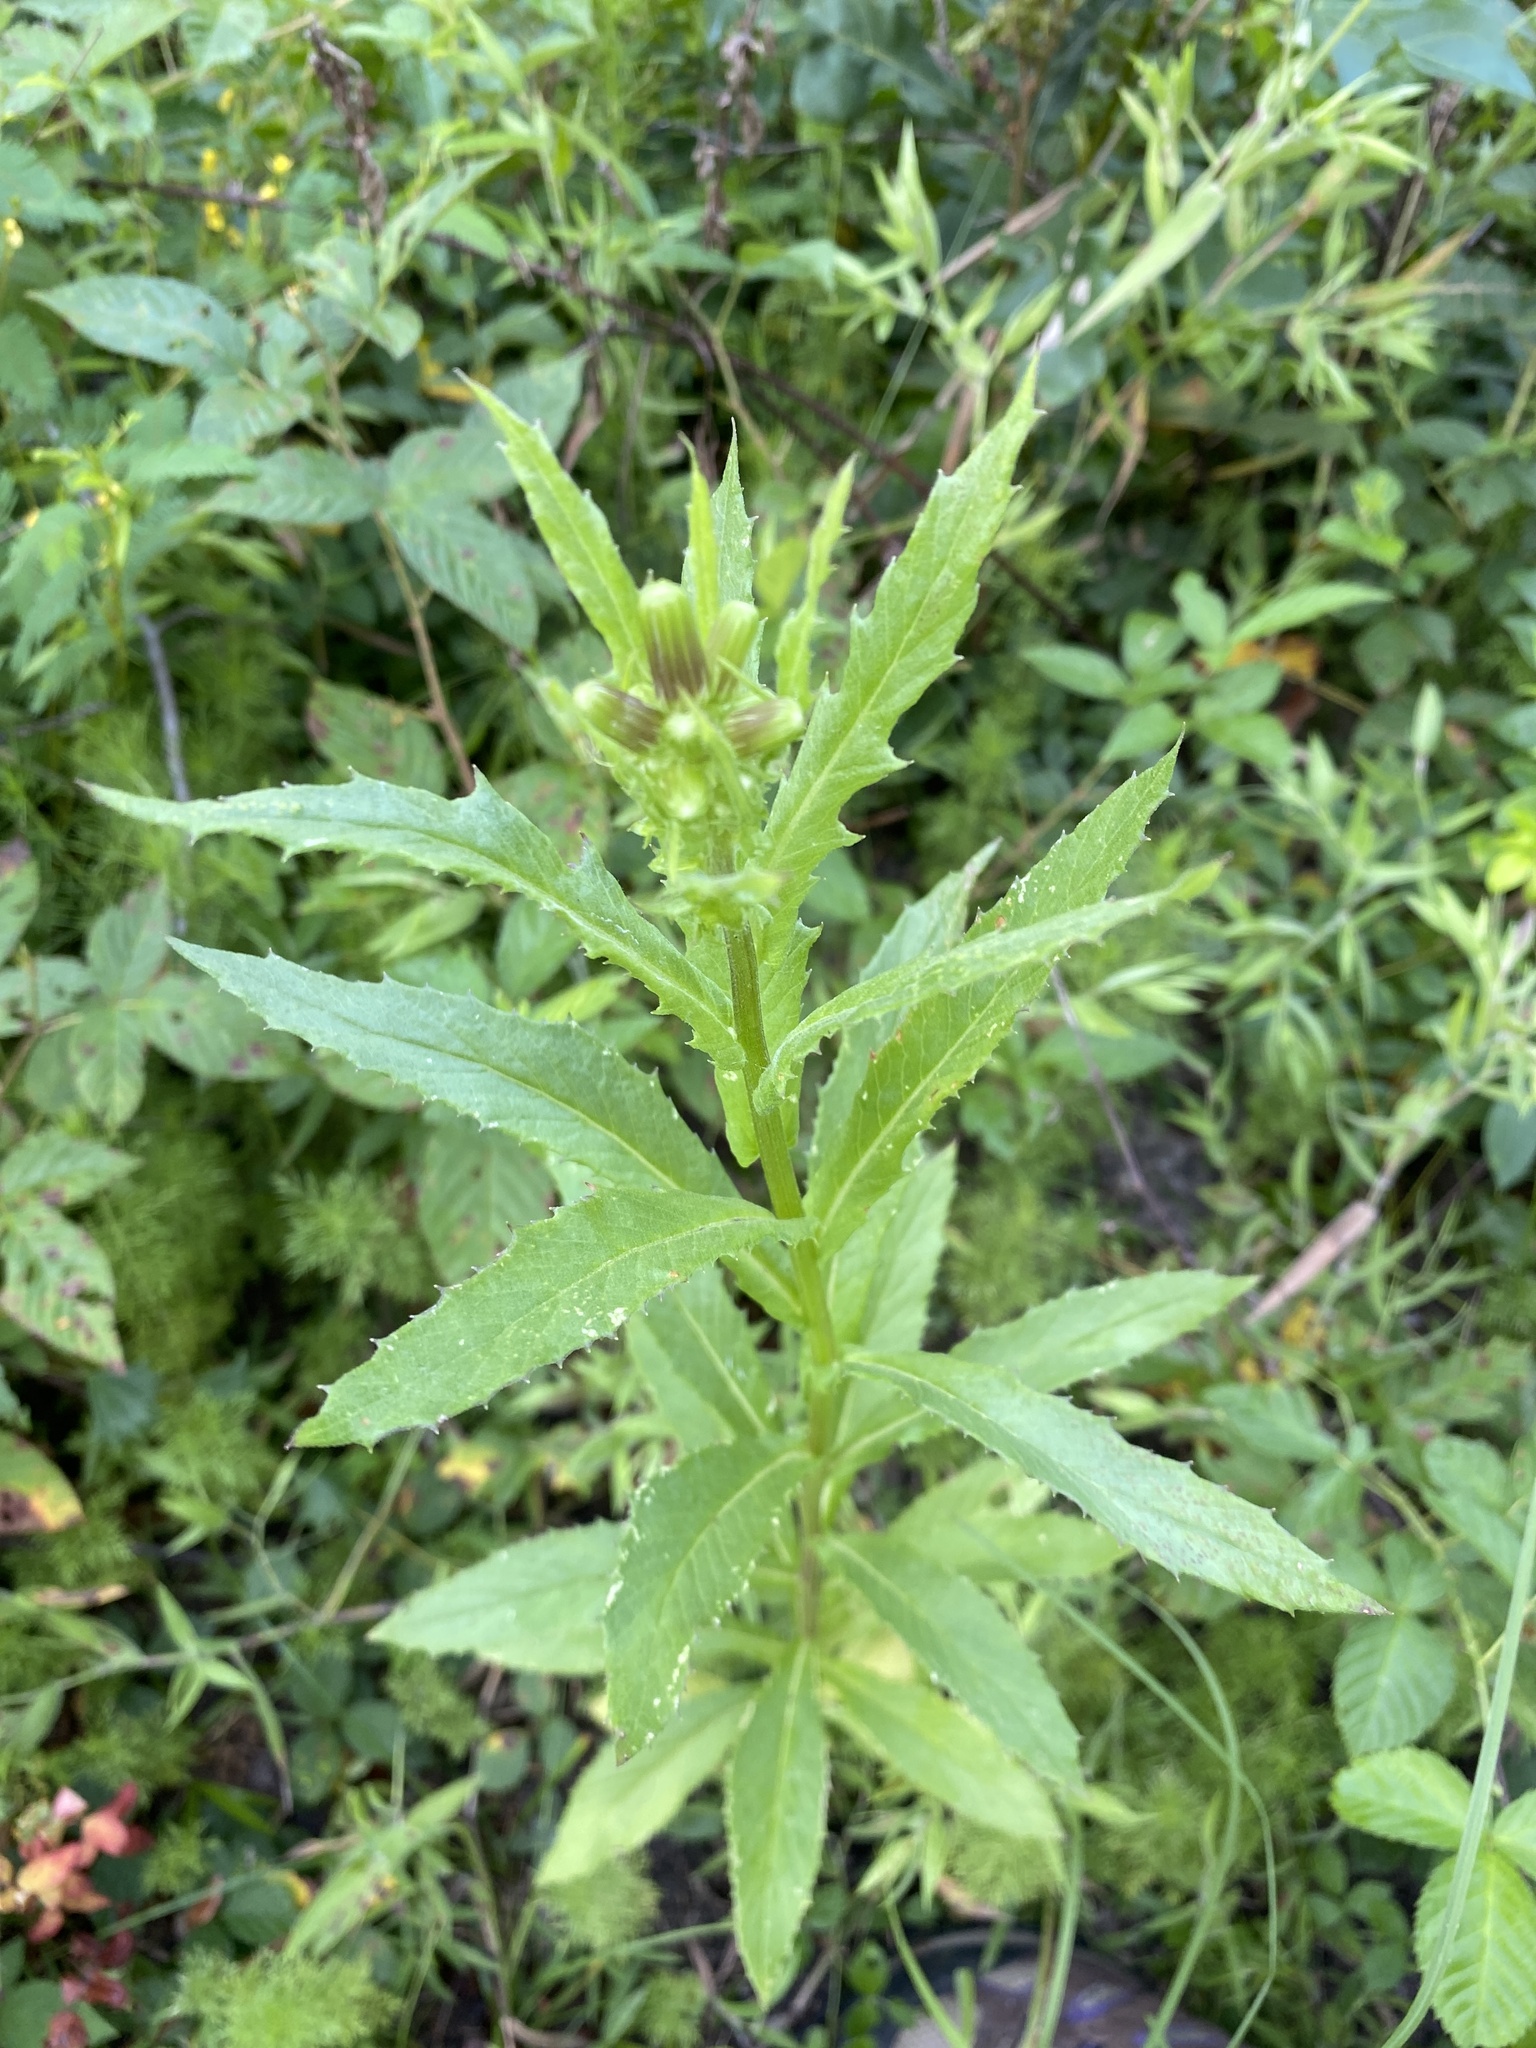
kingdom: Plantae
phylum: Tracheophyta
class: Magnoliopsida
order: Asterales
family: Asteraceae
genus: Erechtites
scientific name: Erechtites hieraciifolius
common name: American burnweed
